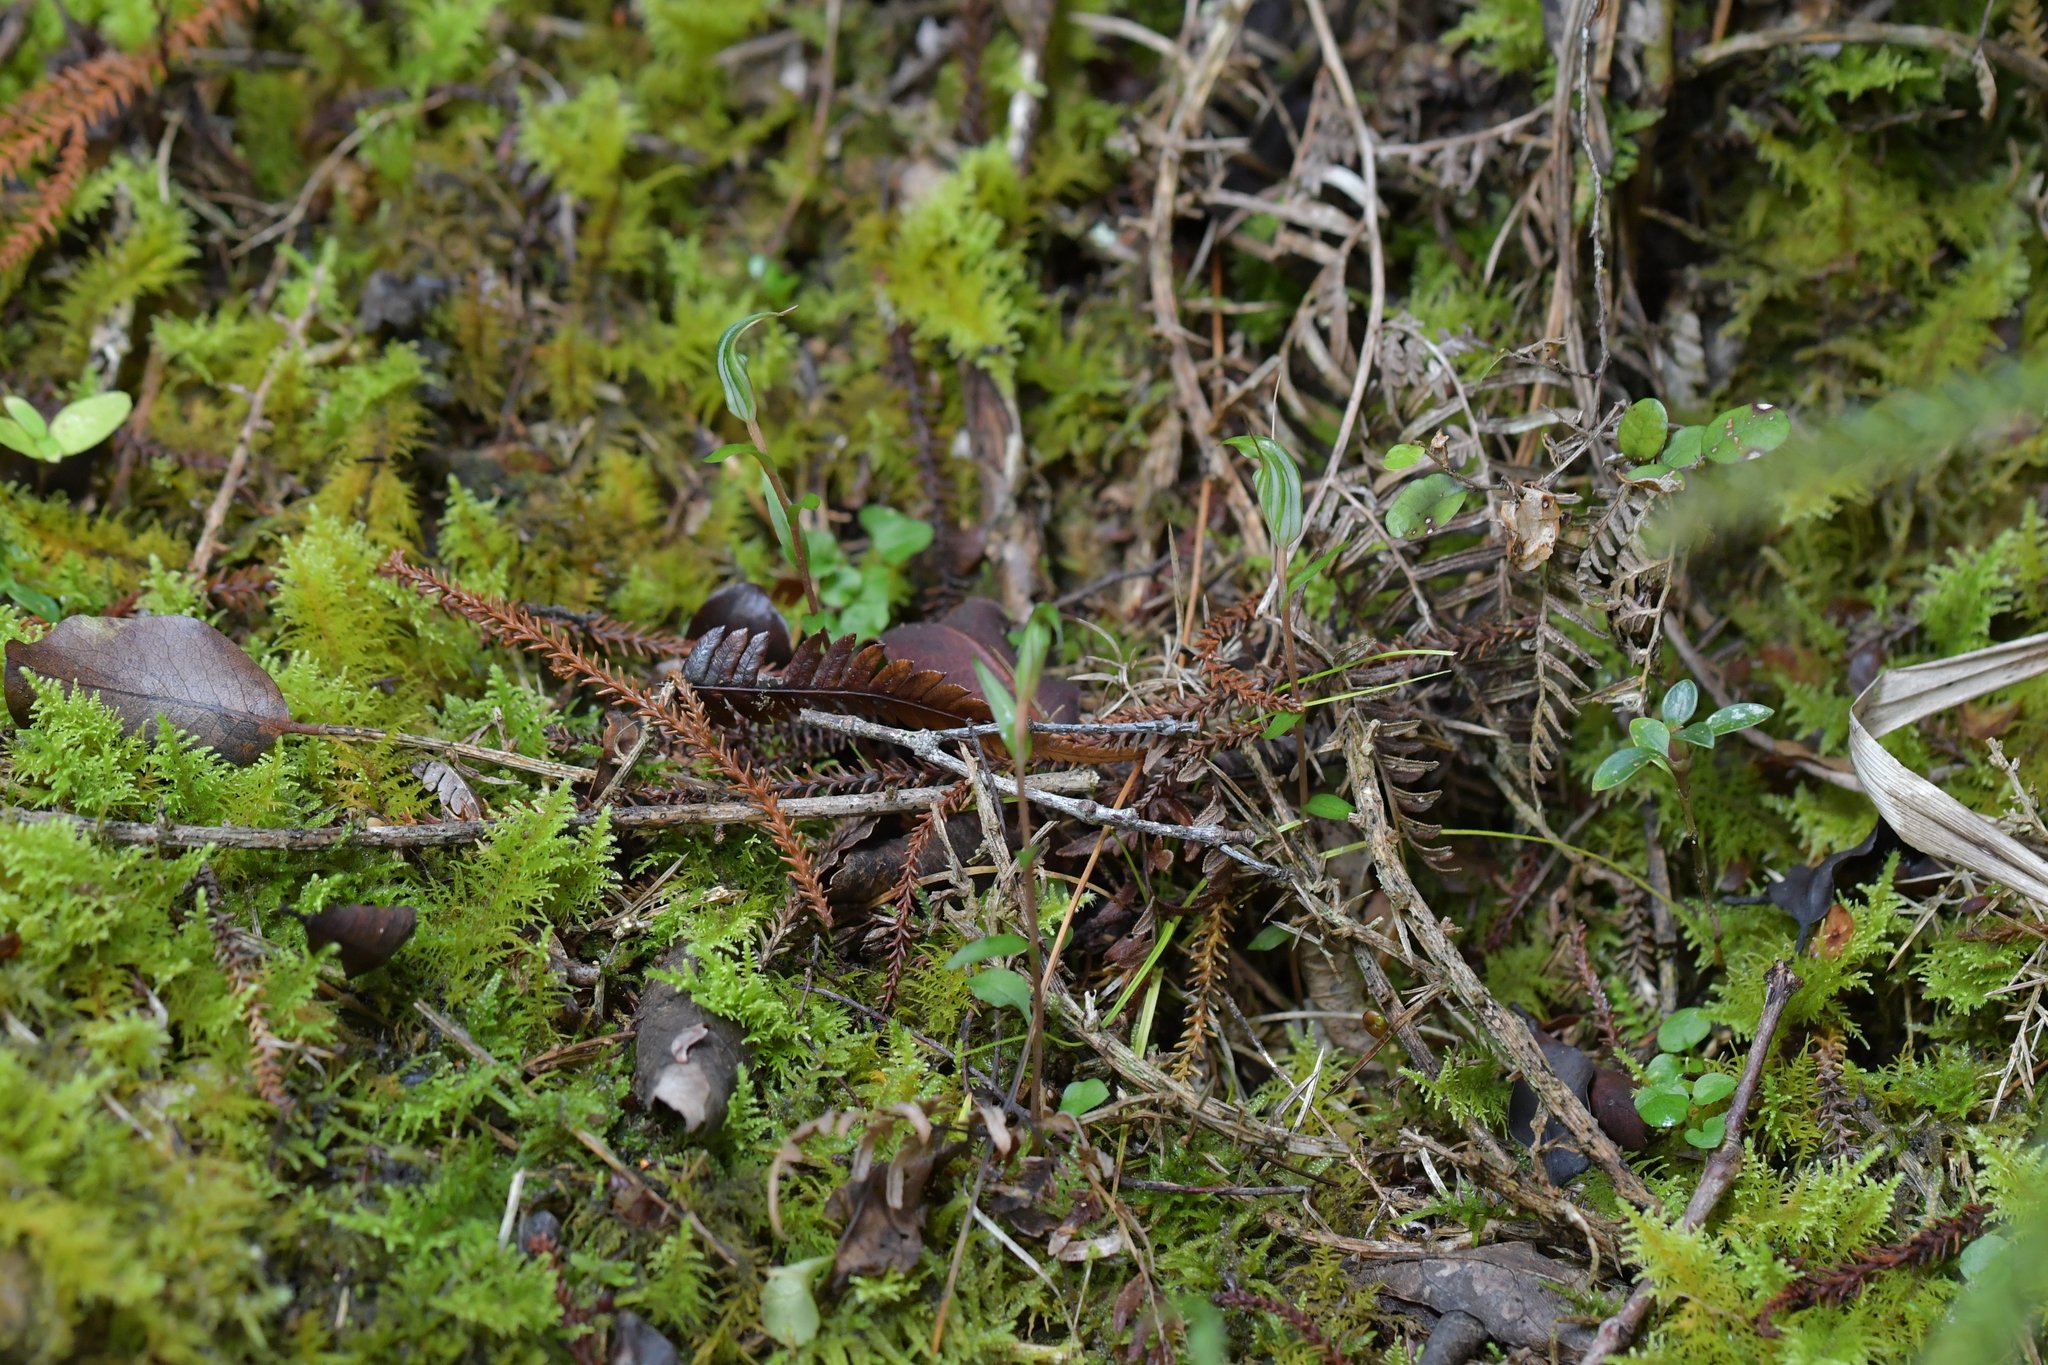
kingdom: Plantae
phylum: Tracheophyta
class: Liliopsida
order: Asparagales
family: Orchidaceae
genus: Pterostylis
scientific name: Pterostylis alobula
